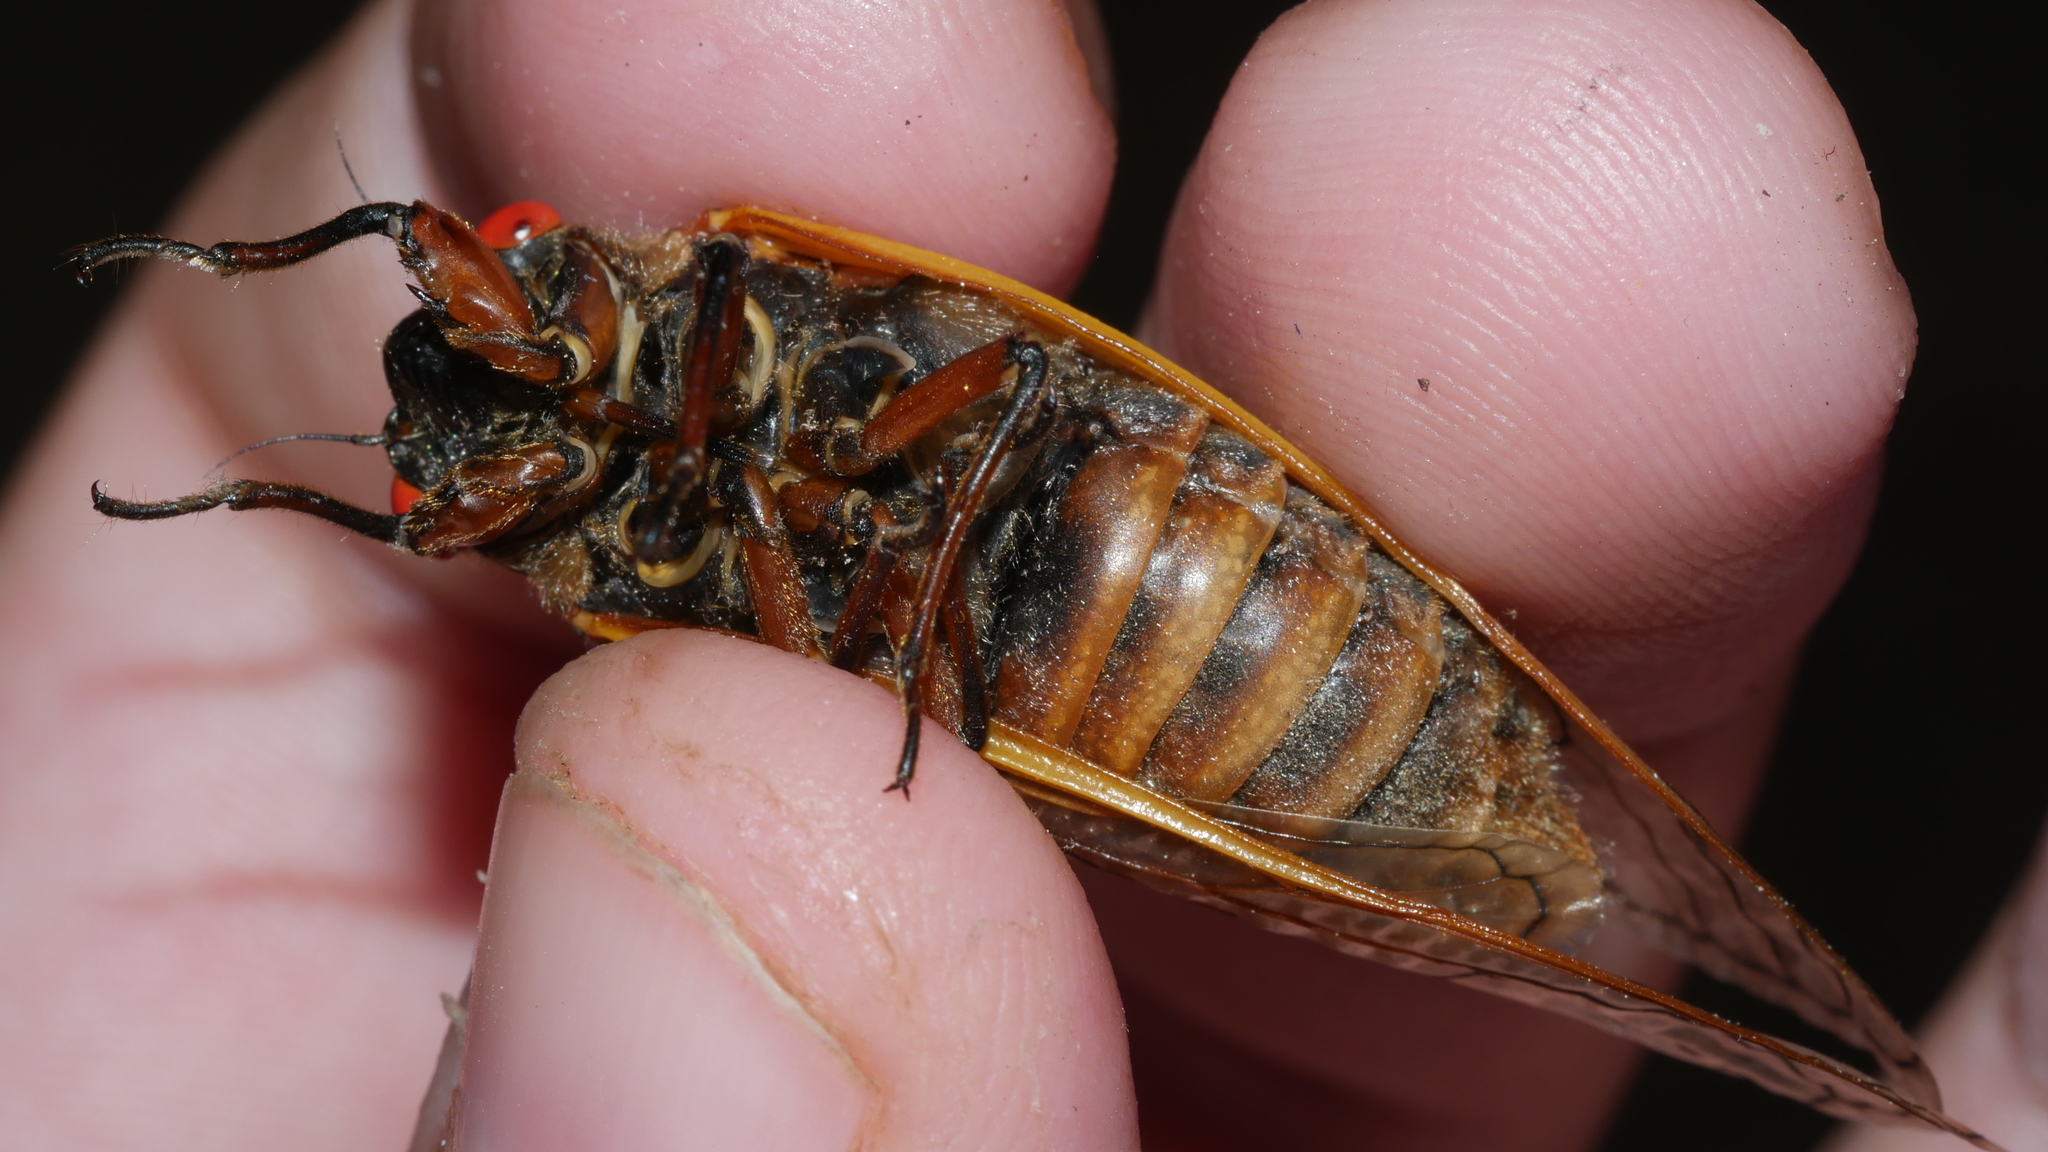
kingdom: Animalia
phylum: Arthropoda
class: Insecta
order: Hemiptera
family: Cicadidae
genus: Magicicada
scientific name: Magicicada septendecim
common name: Periodical cicada
